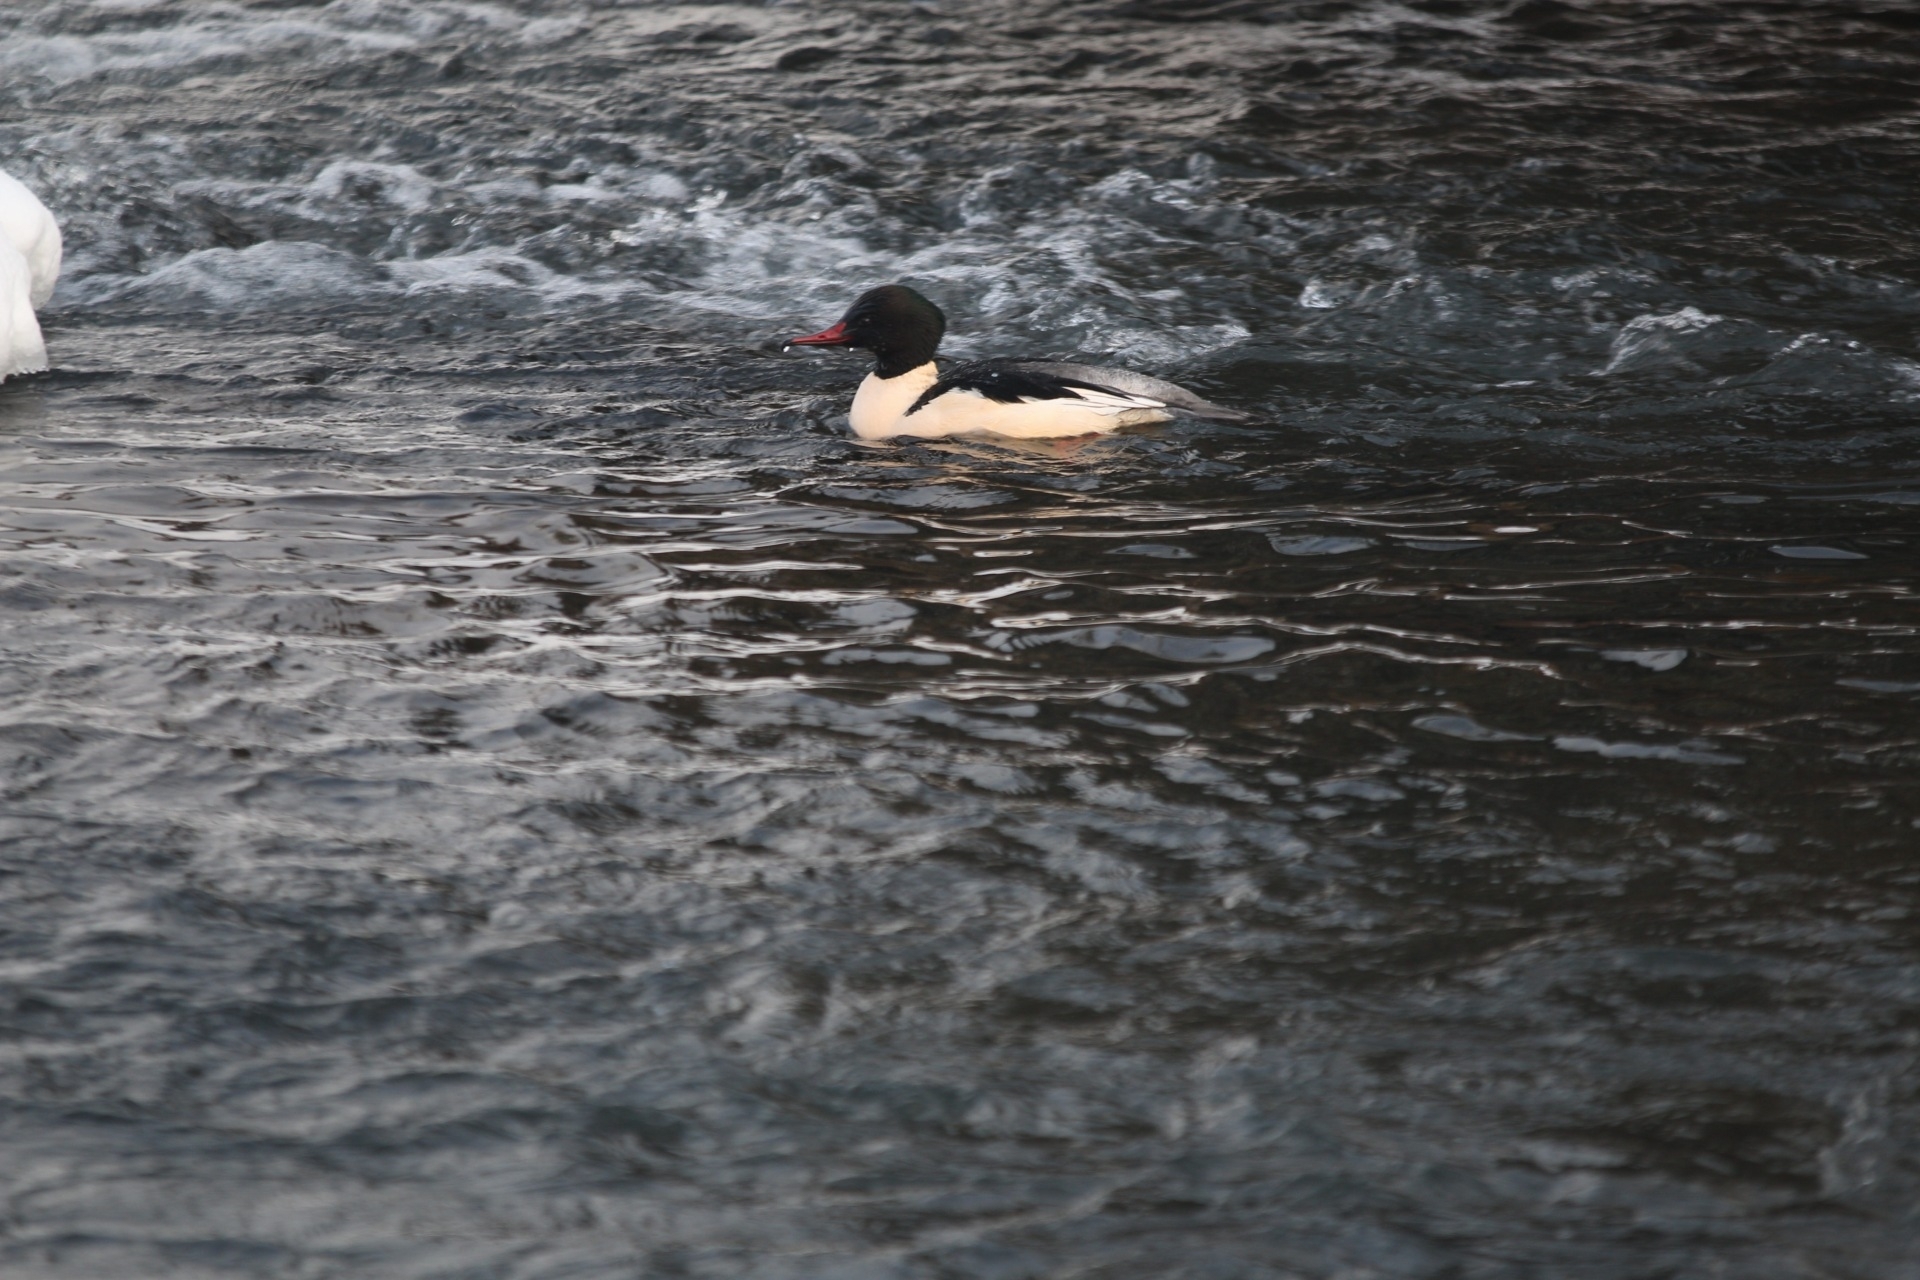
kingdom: Animalia
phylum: Chordata
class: Aves
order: Anseriformes
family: Anatidae
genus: Mergus
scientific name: Mergus merganser
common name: Common merganser
